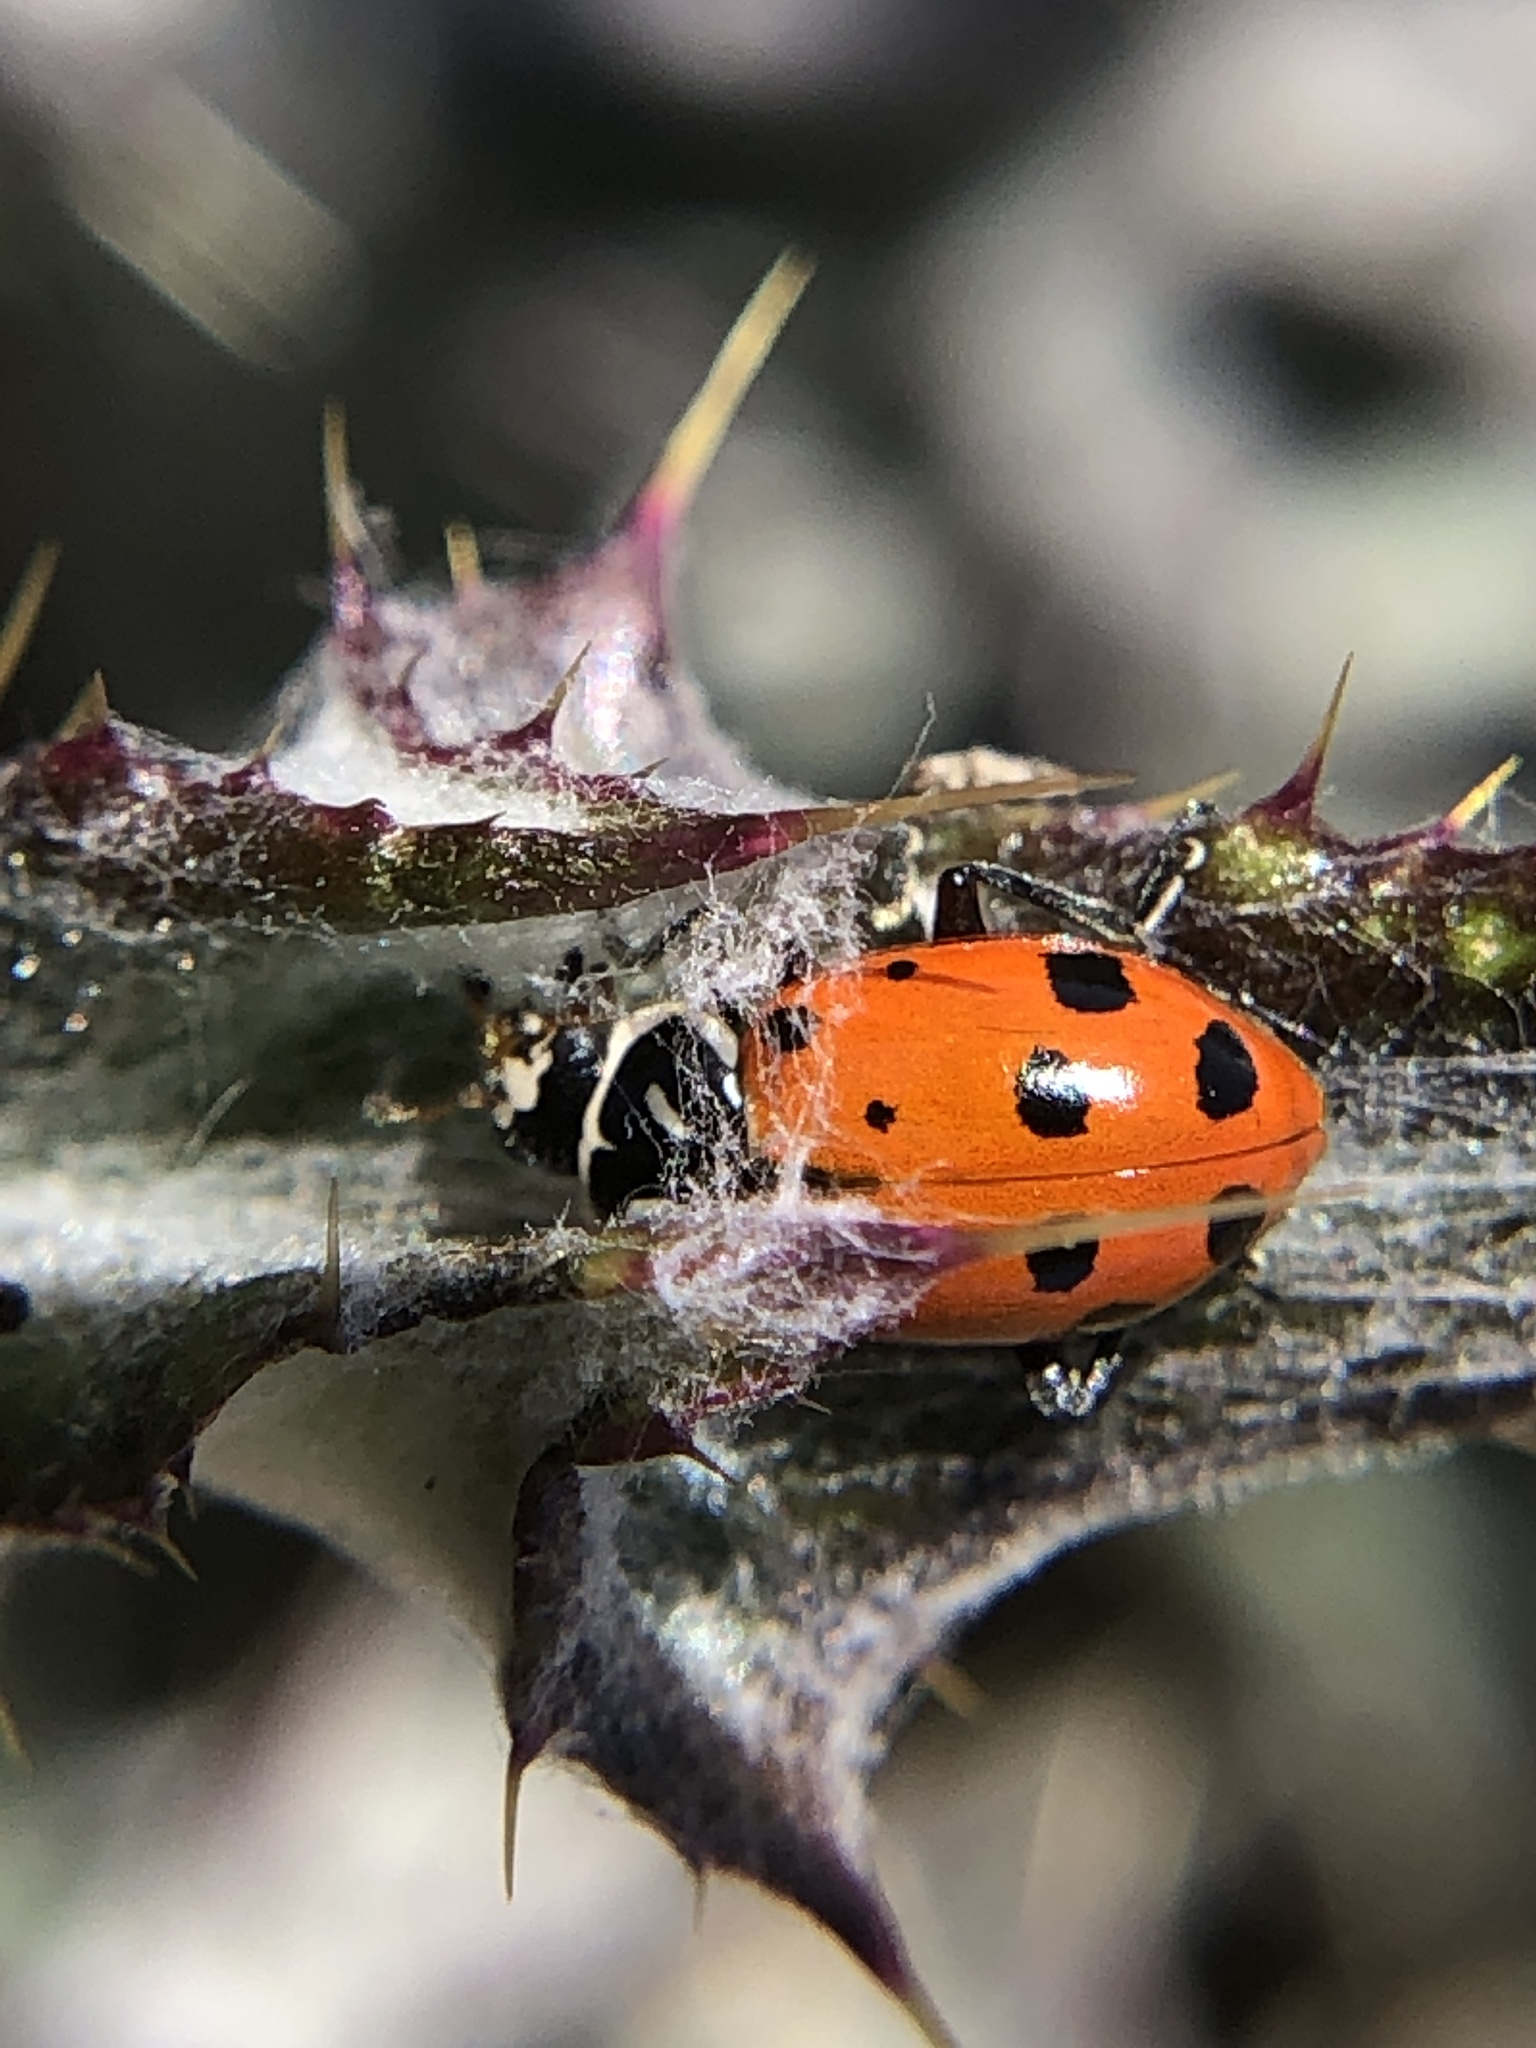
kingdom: Animalia
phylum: Arthropoda
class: Insecta
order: Coleoptera
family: Coccinellidae
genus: Hippodamia
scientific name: Hippodamia convergens
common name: Convergent lady beetle
